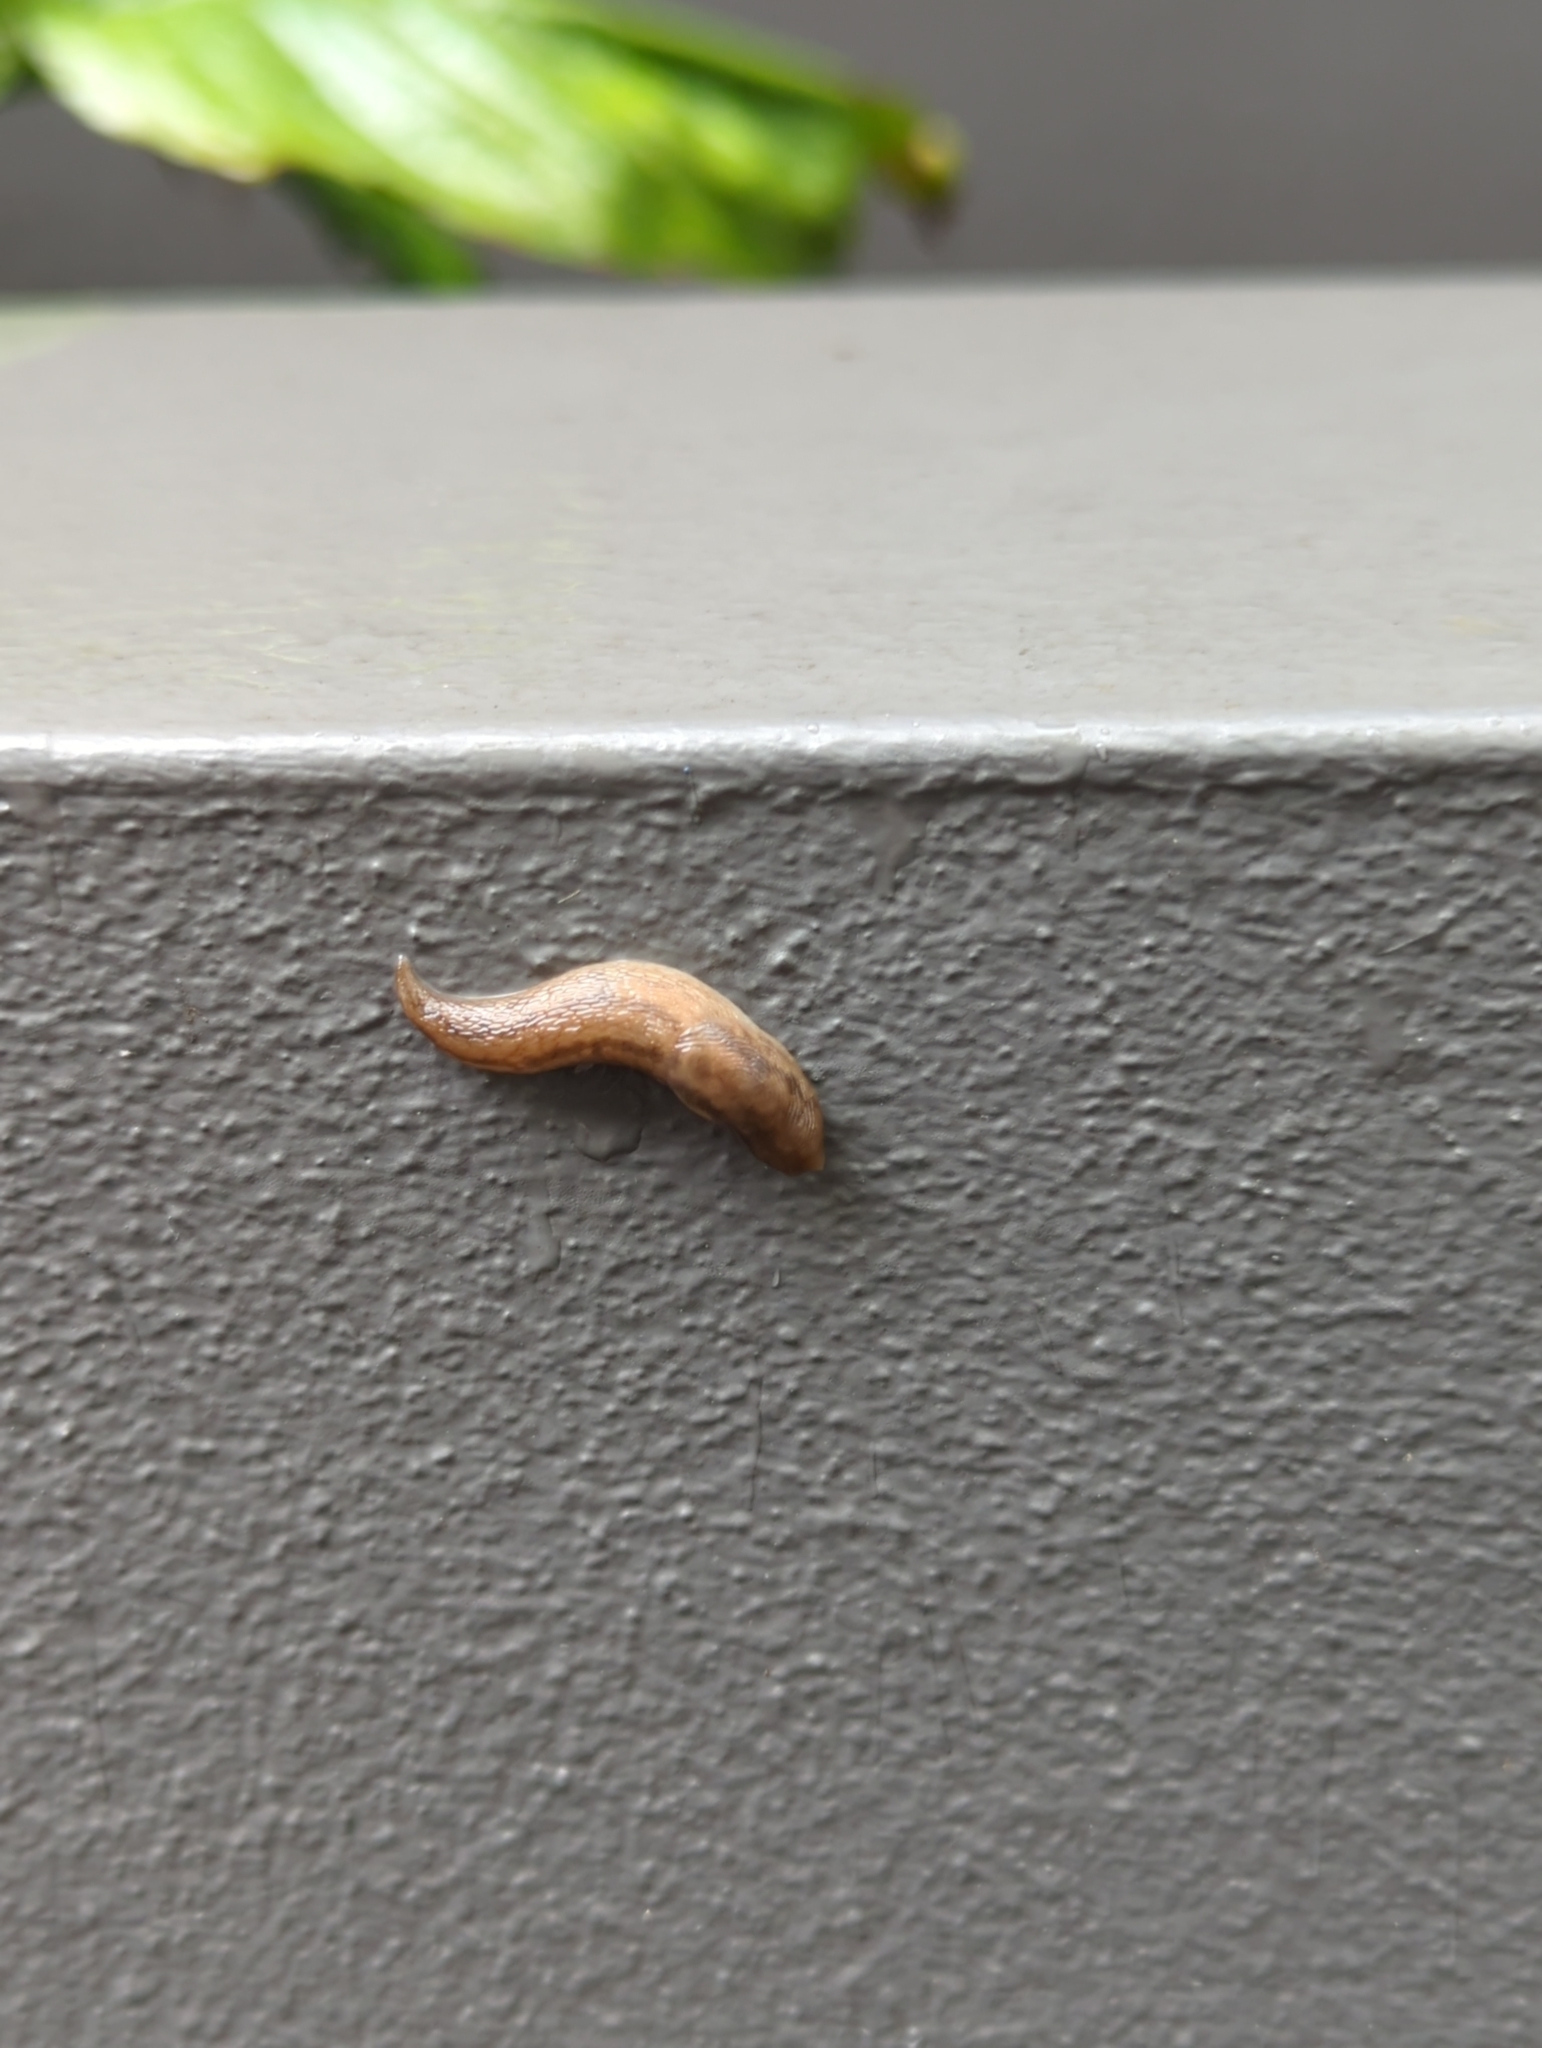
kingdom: Animalia
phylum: Mollusca
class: Gastropoda
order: Stylommatophora
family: Limacidae
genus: Ambigolimax
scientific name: Ambigolimax
